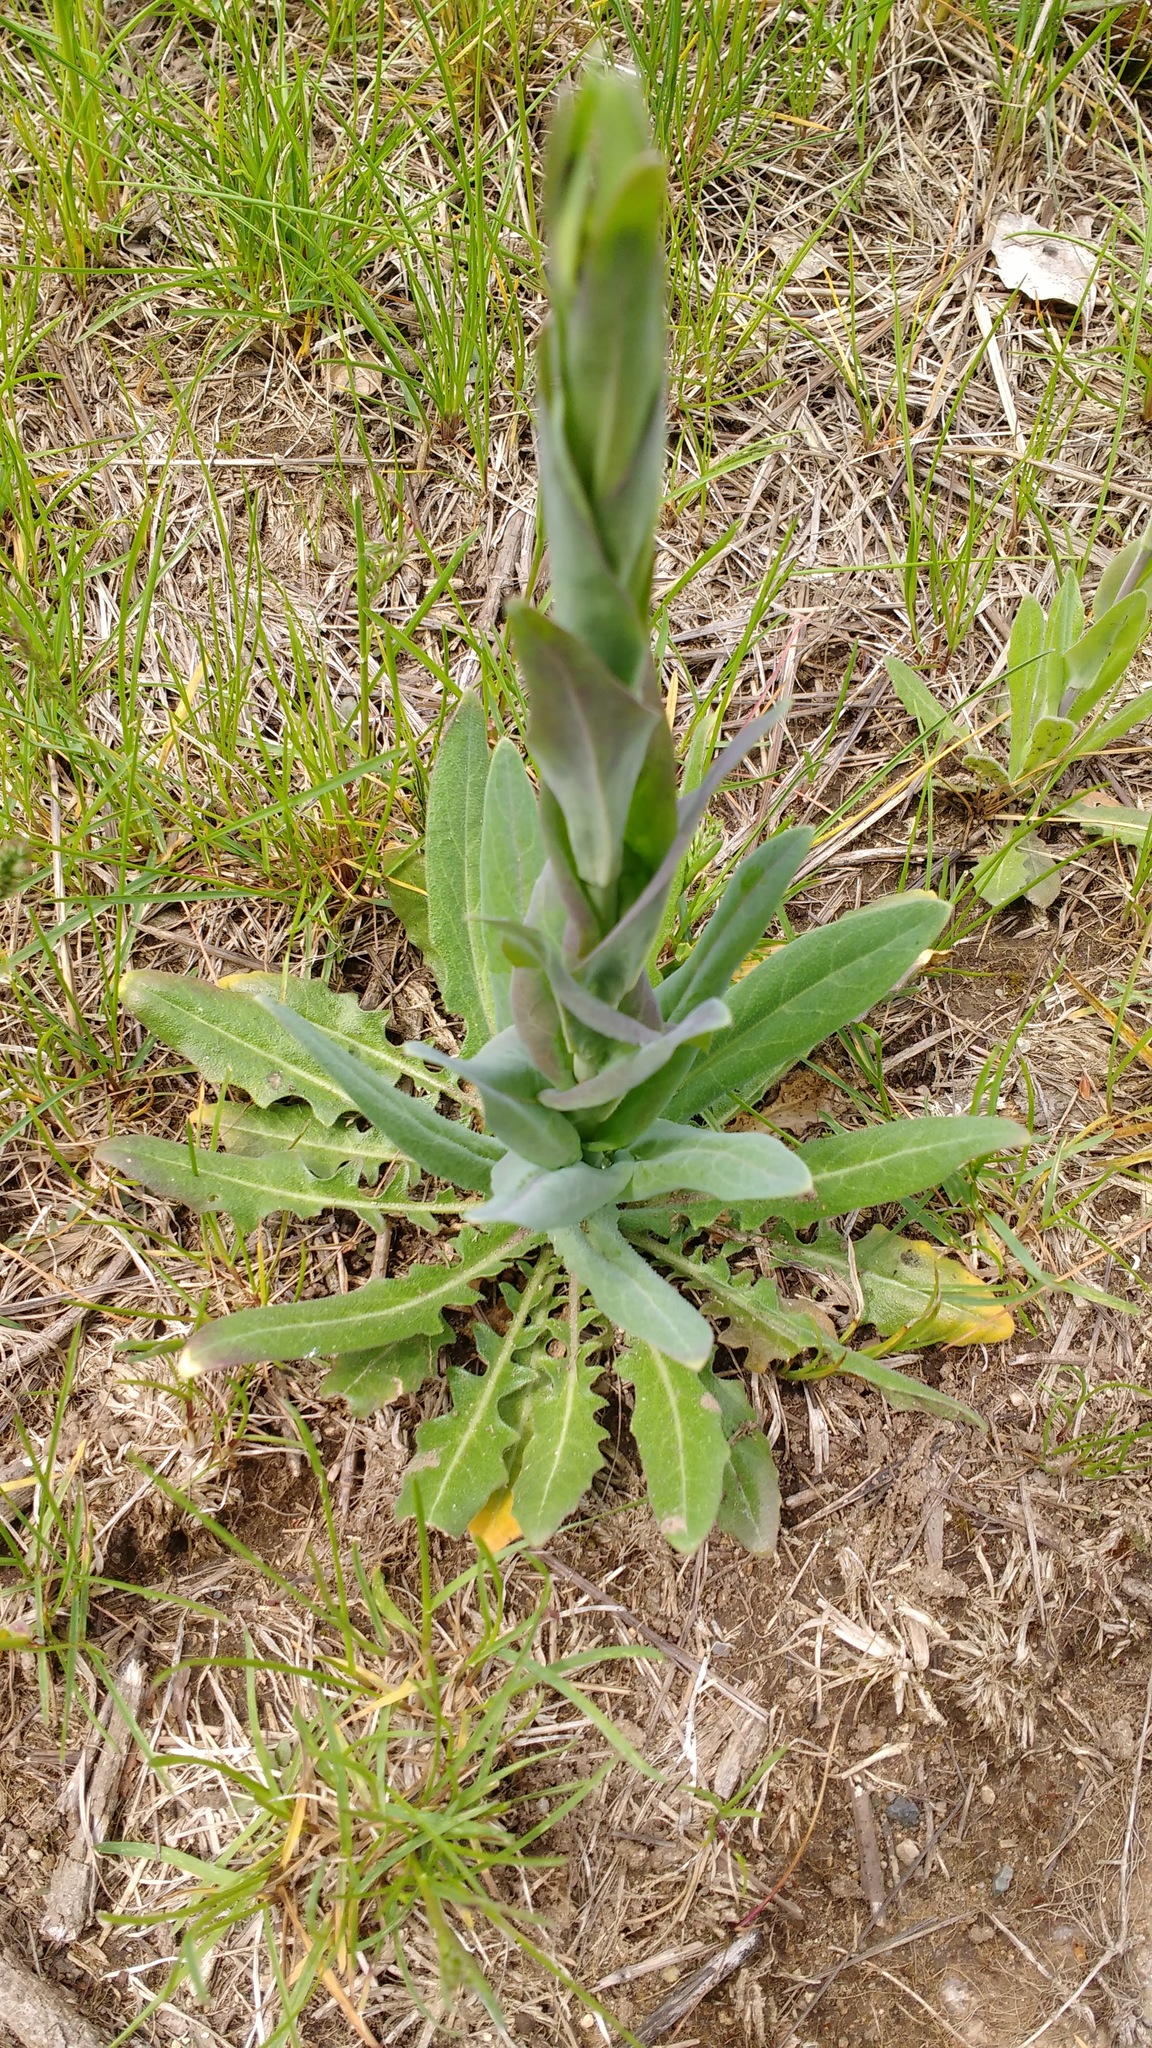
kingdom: Plantae
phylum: Tracheophyta
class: Magnoliopsida
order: Brassicales
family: Brassicaceae
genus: Turritis
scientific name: Turritis glabra
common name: Tower rockcress
